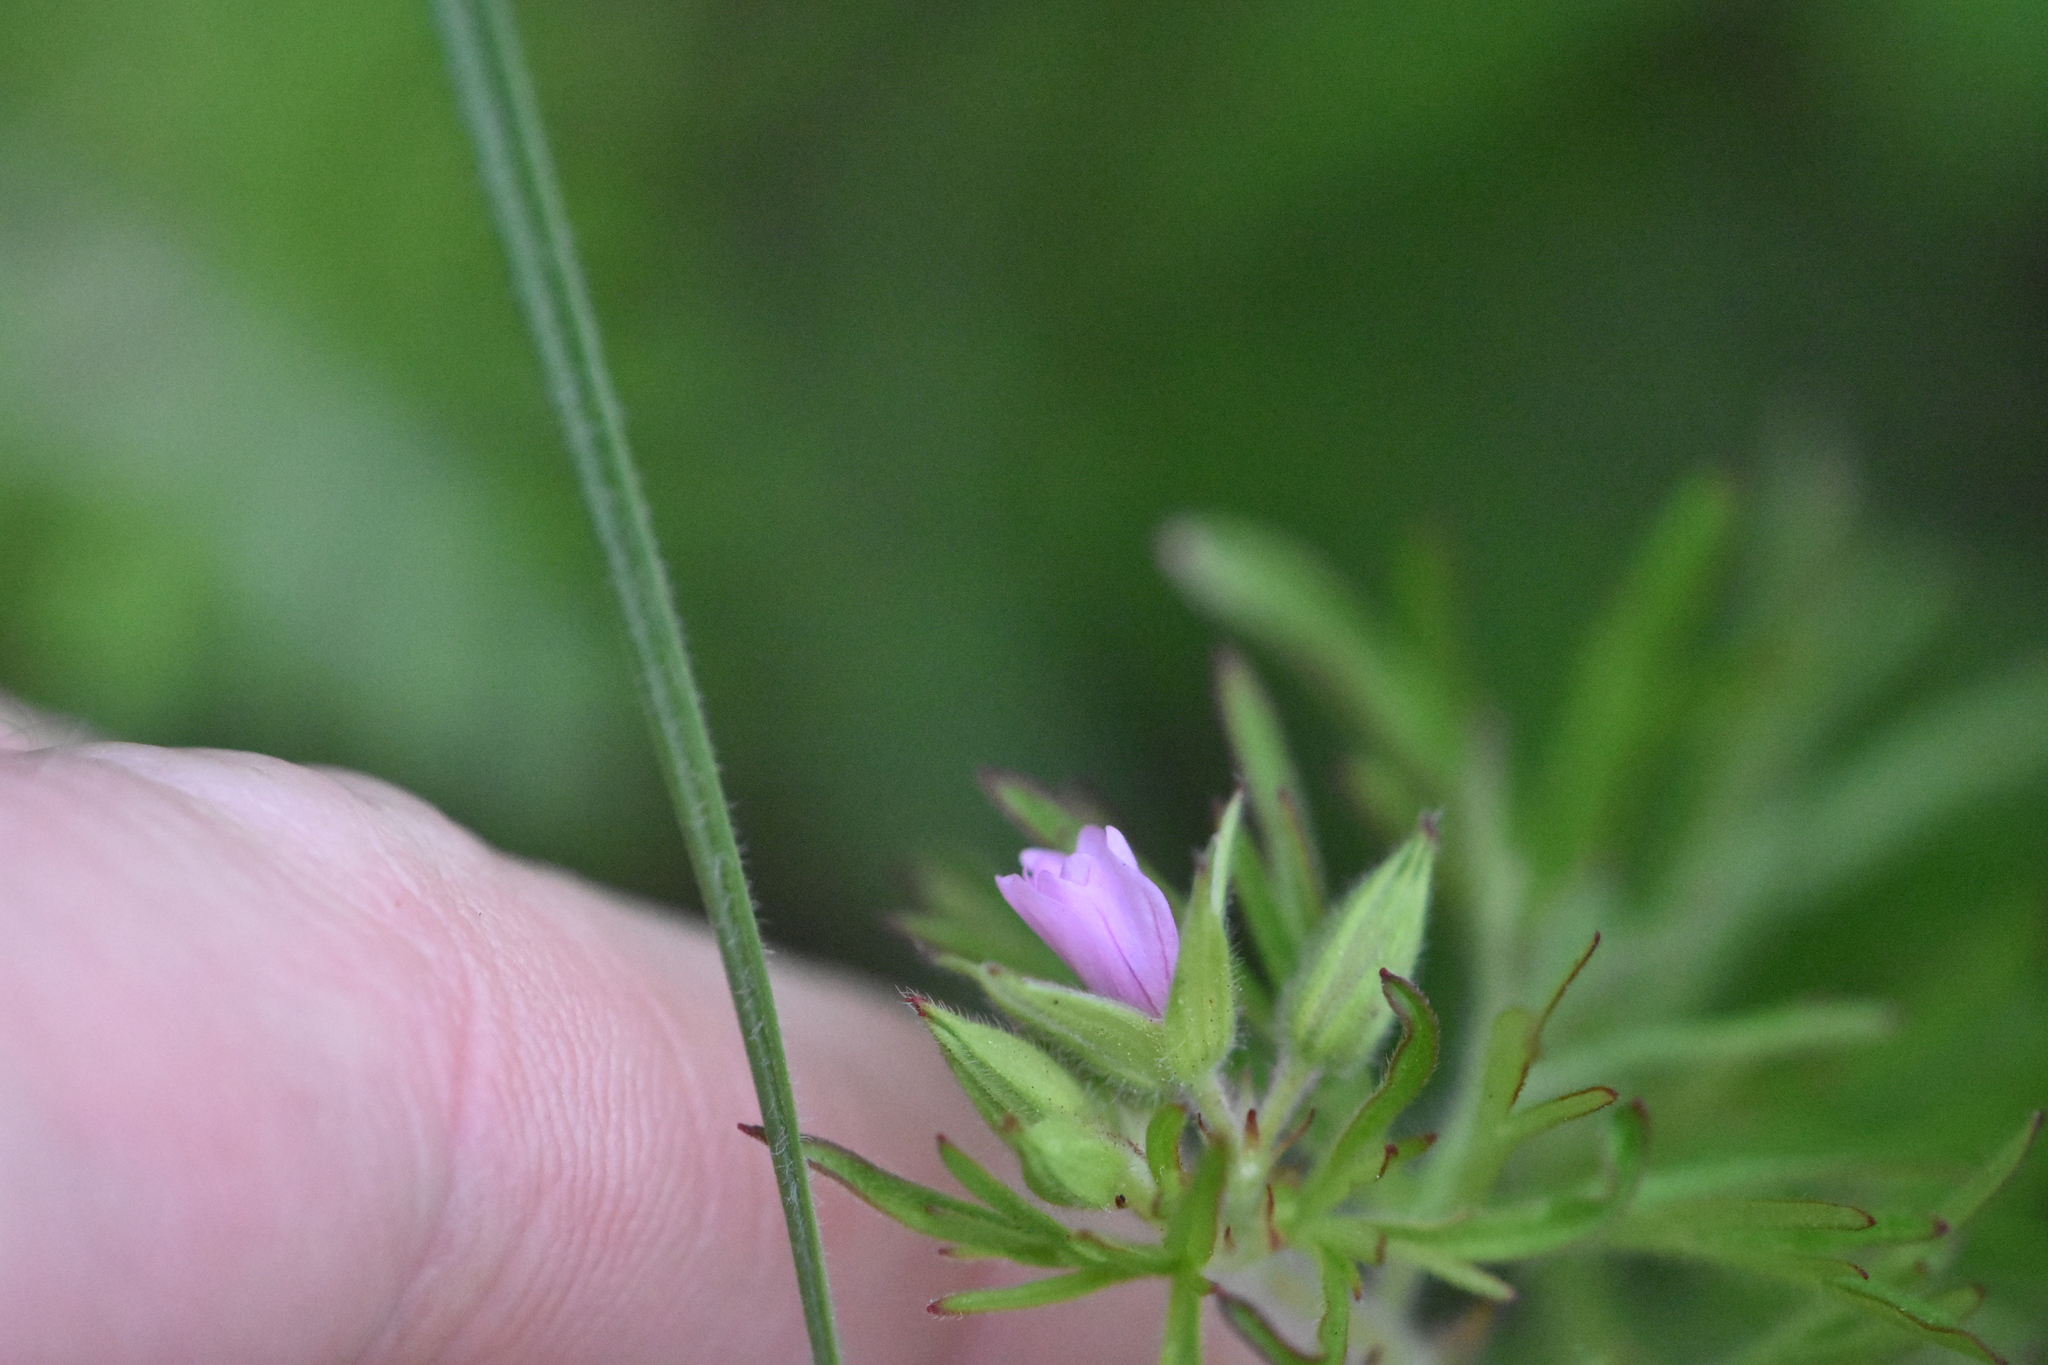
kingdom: Plantae
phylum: Tracheophyta
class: Magnoliopsida
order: Geraniales
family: Geraniaceae
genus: Geranium
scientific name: Geranium dissectum
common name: Cut-leaved crane's-bill
